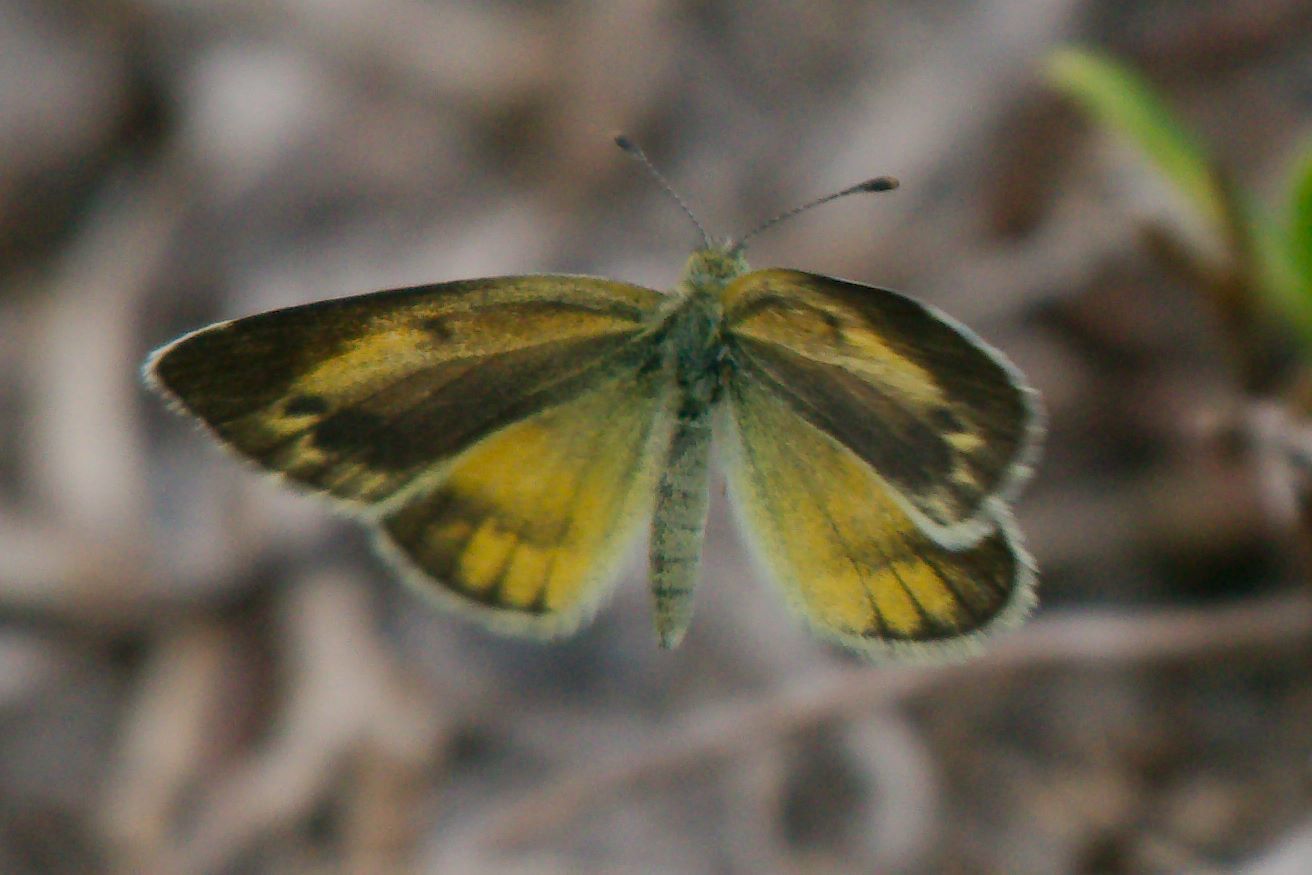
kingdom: Animalia
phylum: Arthropoda
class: Insecta
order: Lepidoptera
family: Pieridae
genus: Nathalis
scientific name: Nathalis iole
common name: Dainty sulphur
